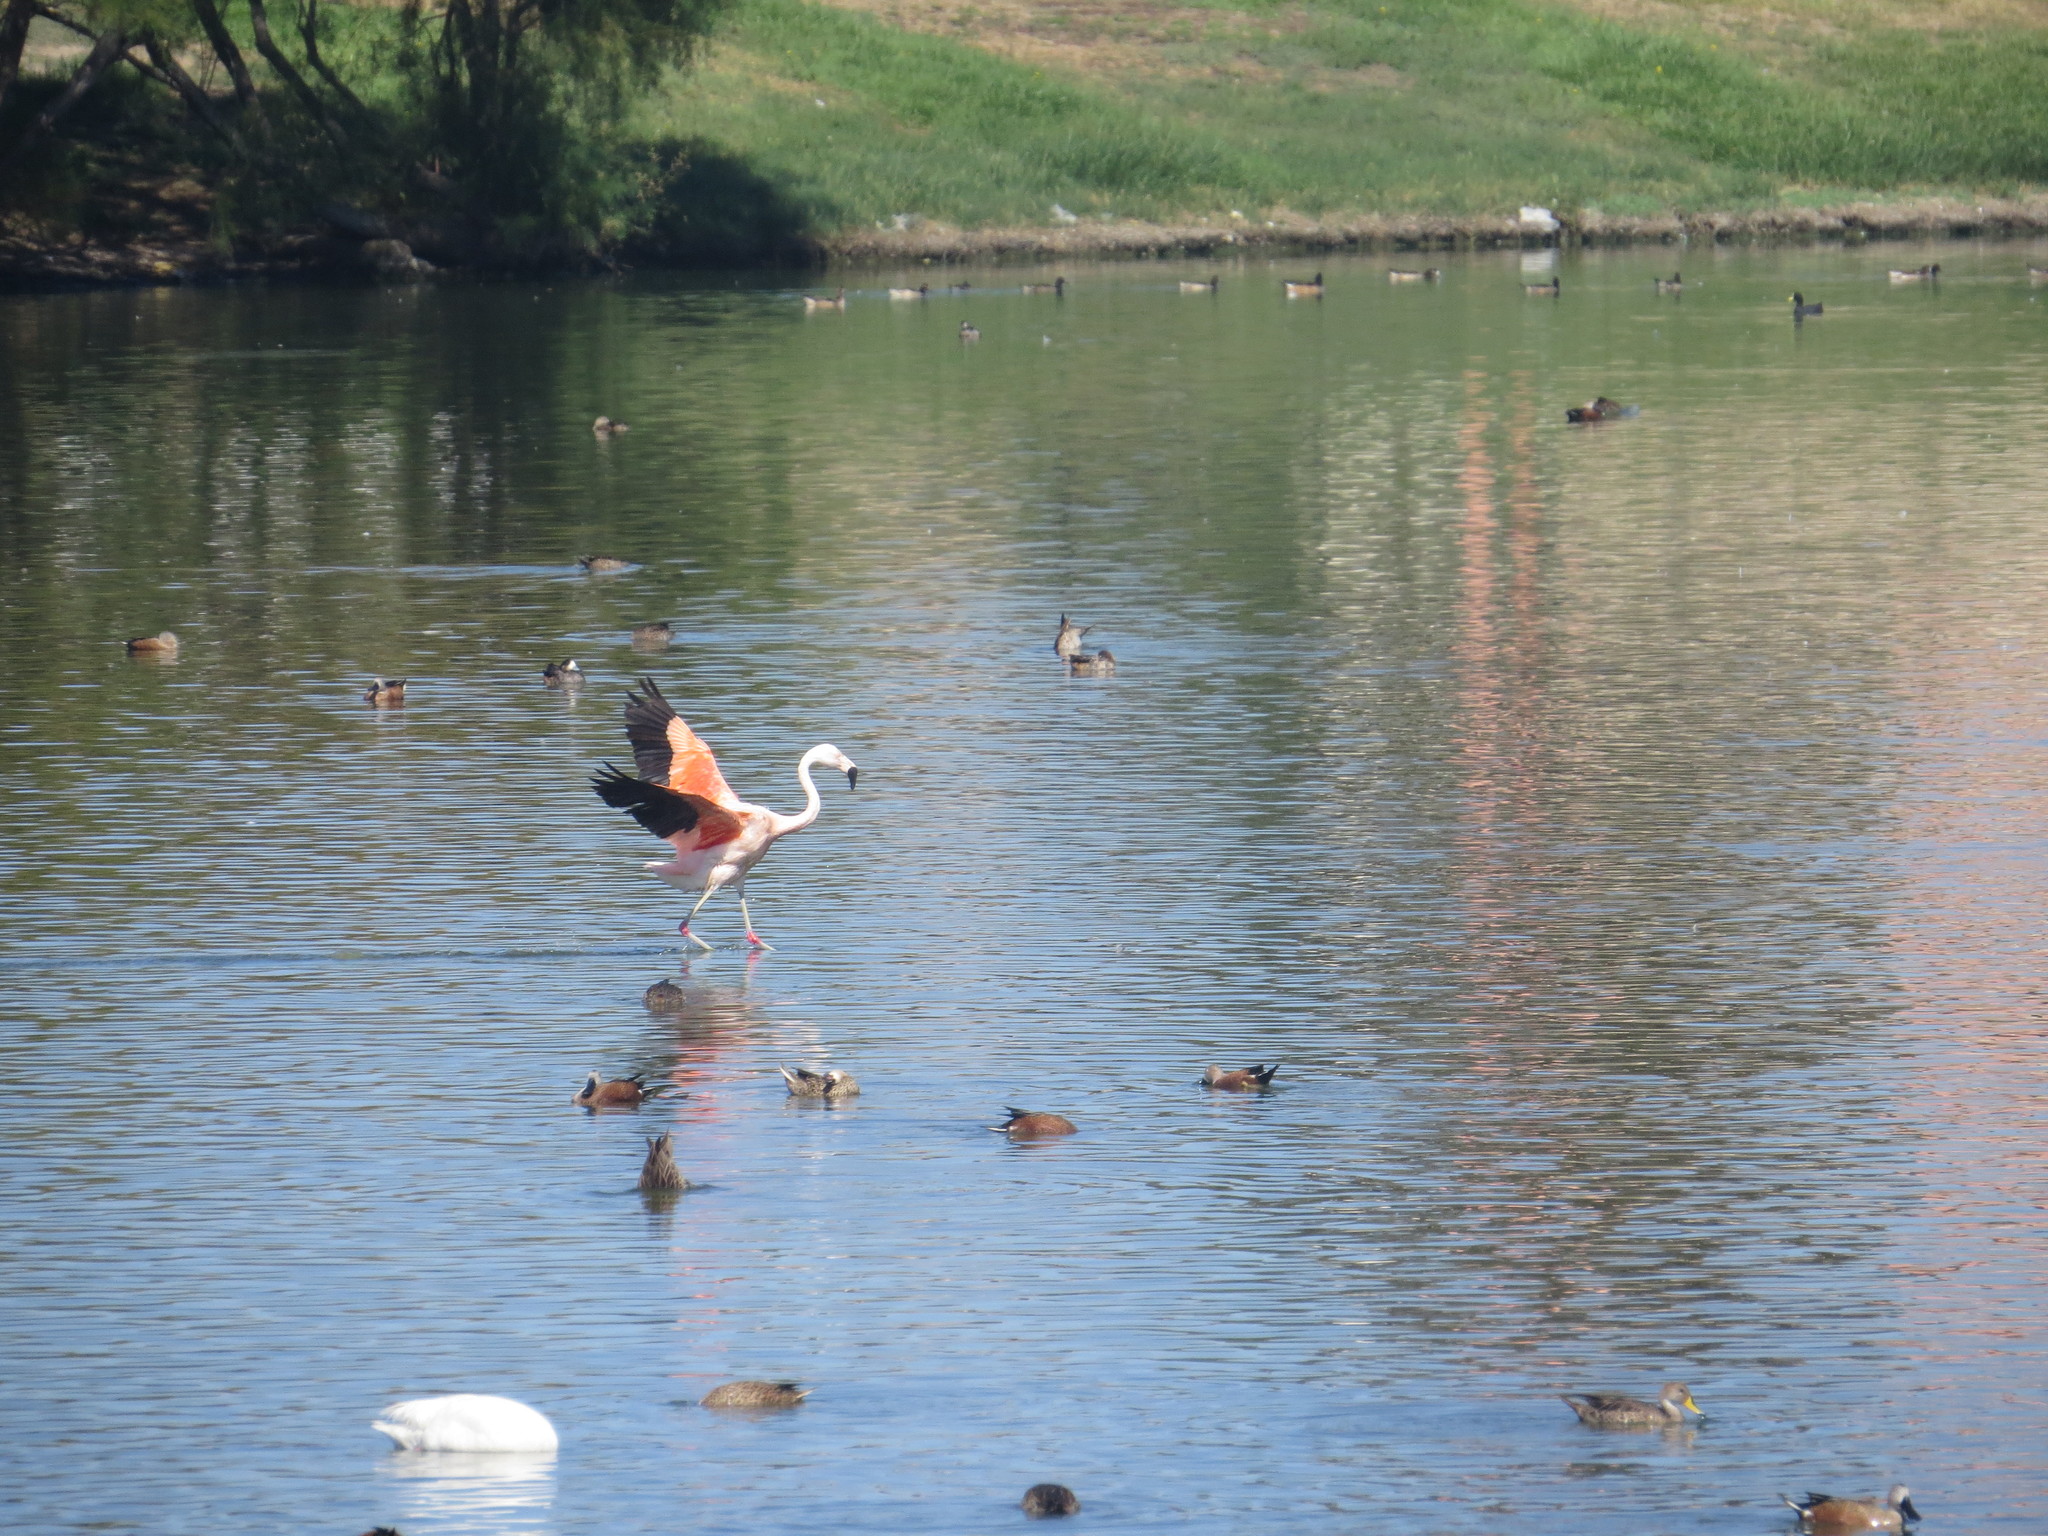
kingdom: Animalia
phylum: Chordata
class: Aves
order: Phoenicopteriformes
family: Phoenicopteridae
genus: Phoenicopterus
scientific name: Phoenicopterus chilensis
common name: Chilean flamingo
